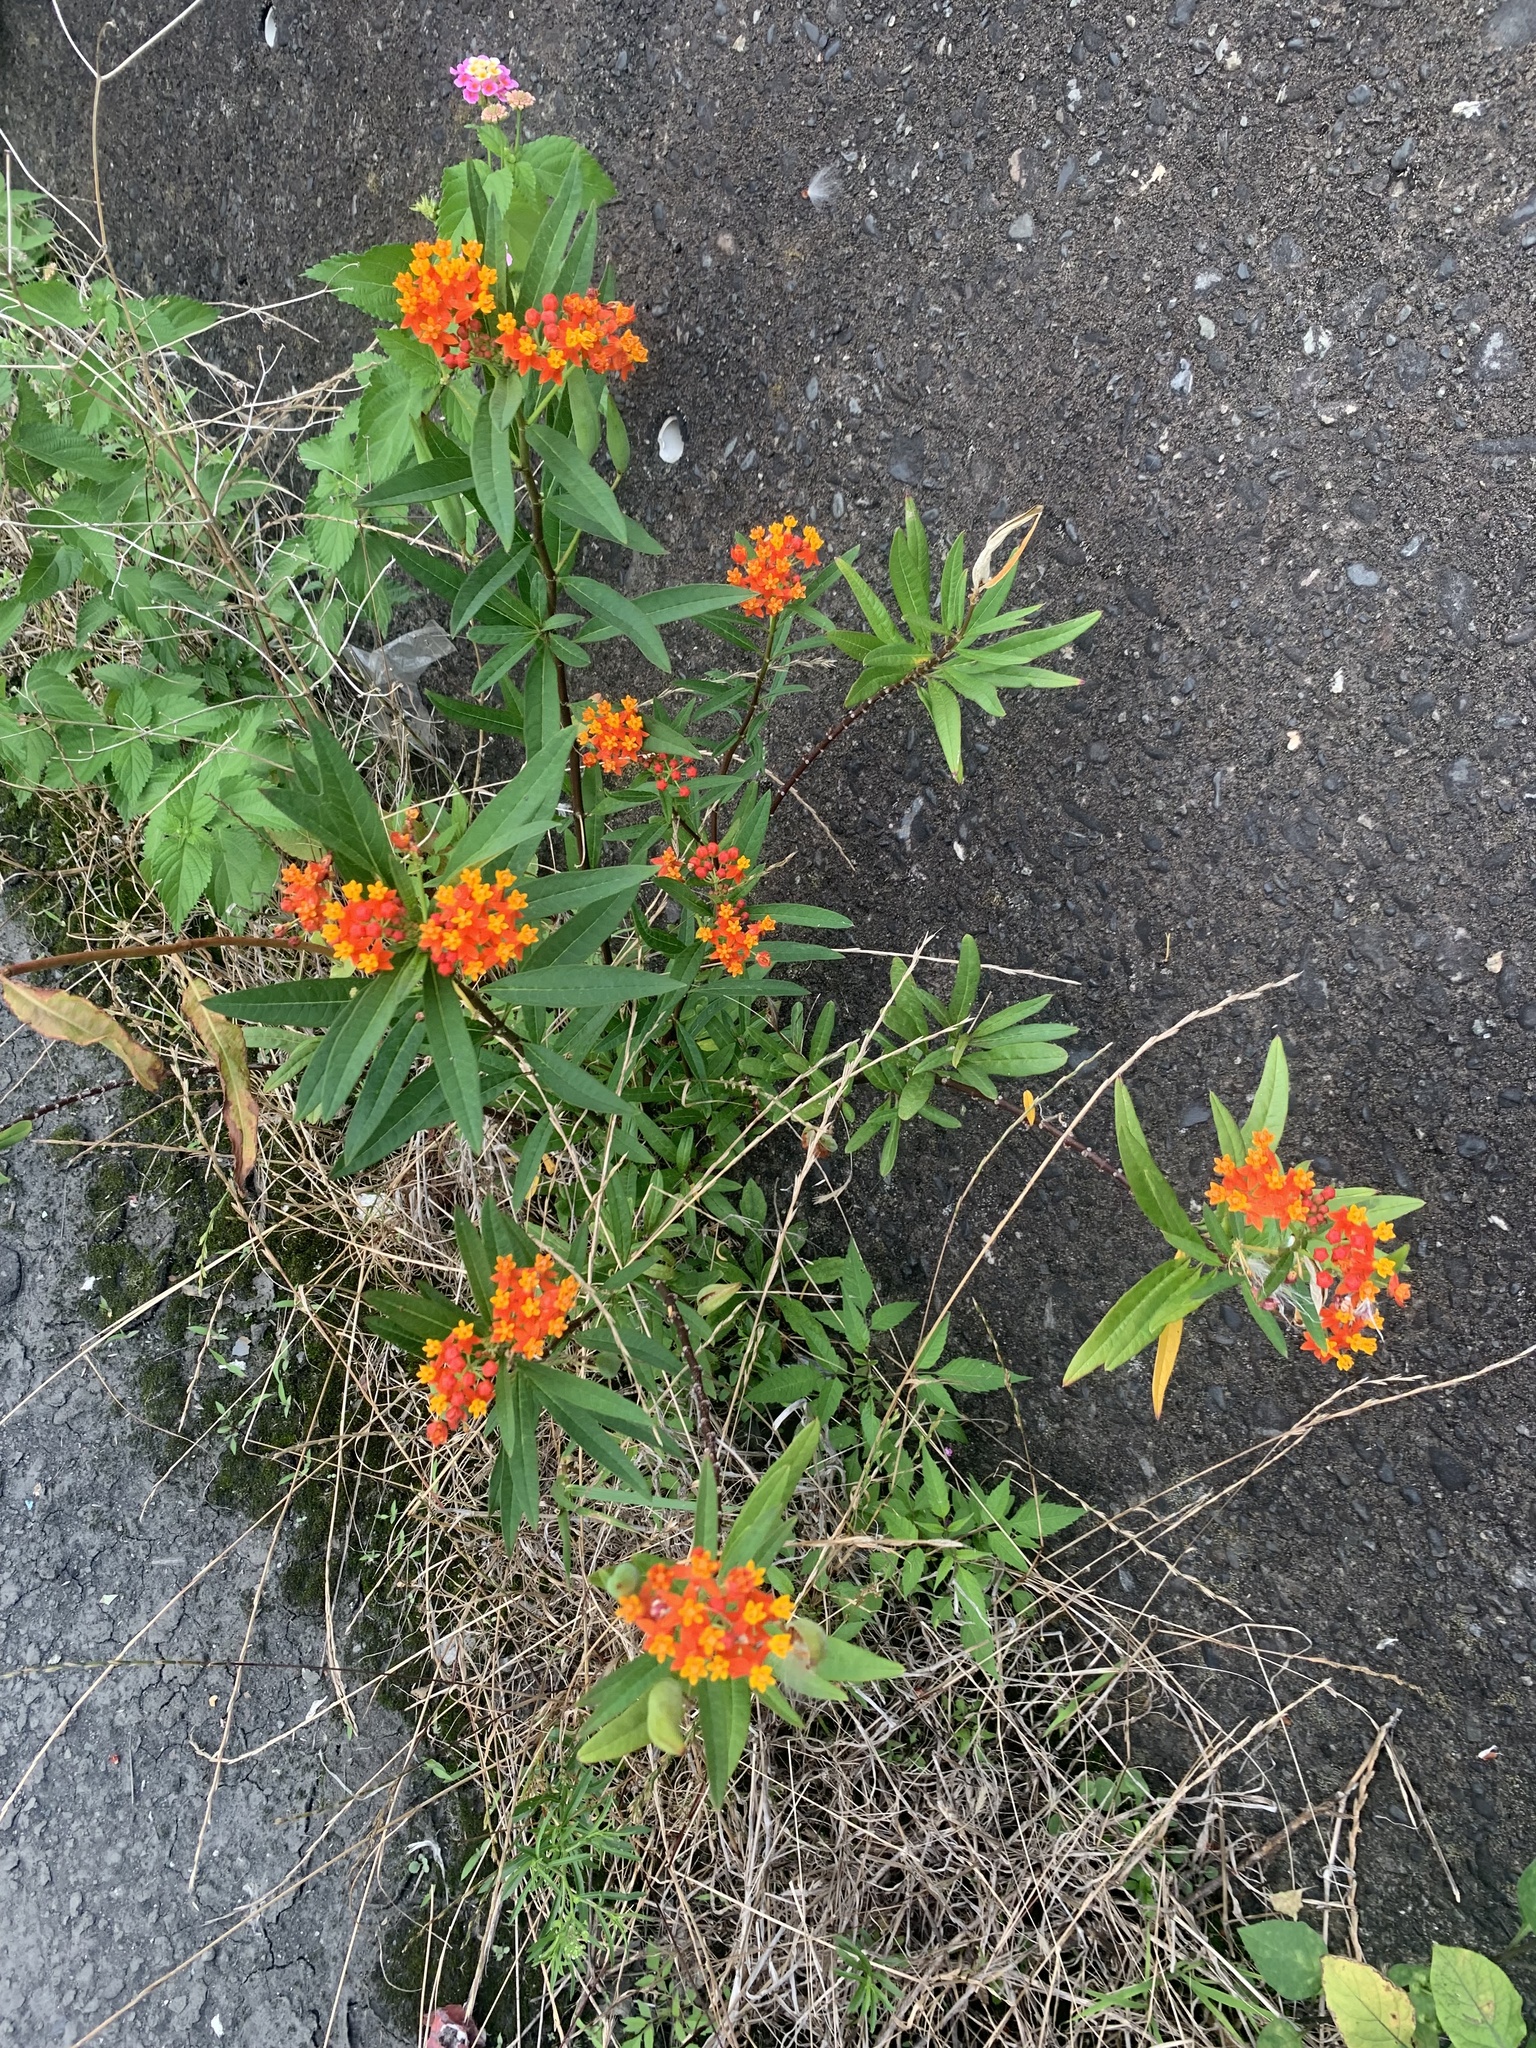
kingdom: Plantae
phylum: Tracheophyta
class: Magnoliopsida
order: Gentianales
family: Apocynaceae
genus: Asclepias
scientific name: Asclepias curassavica
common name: Bloodflower
